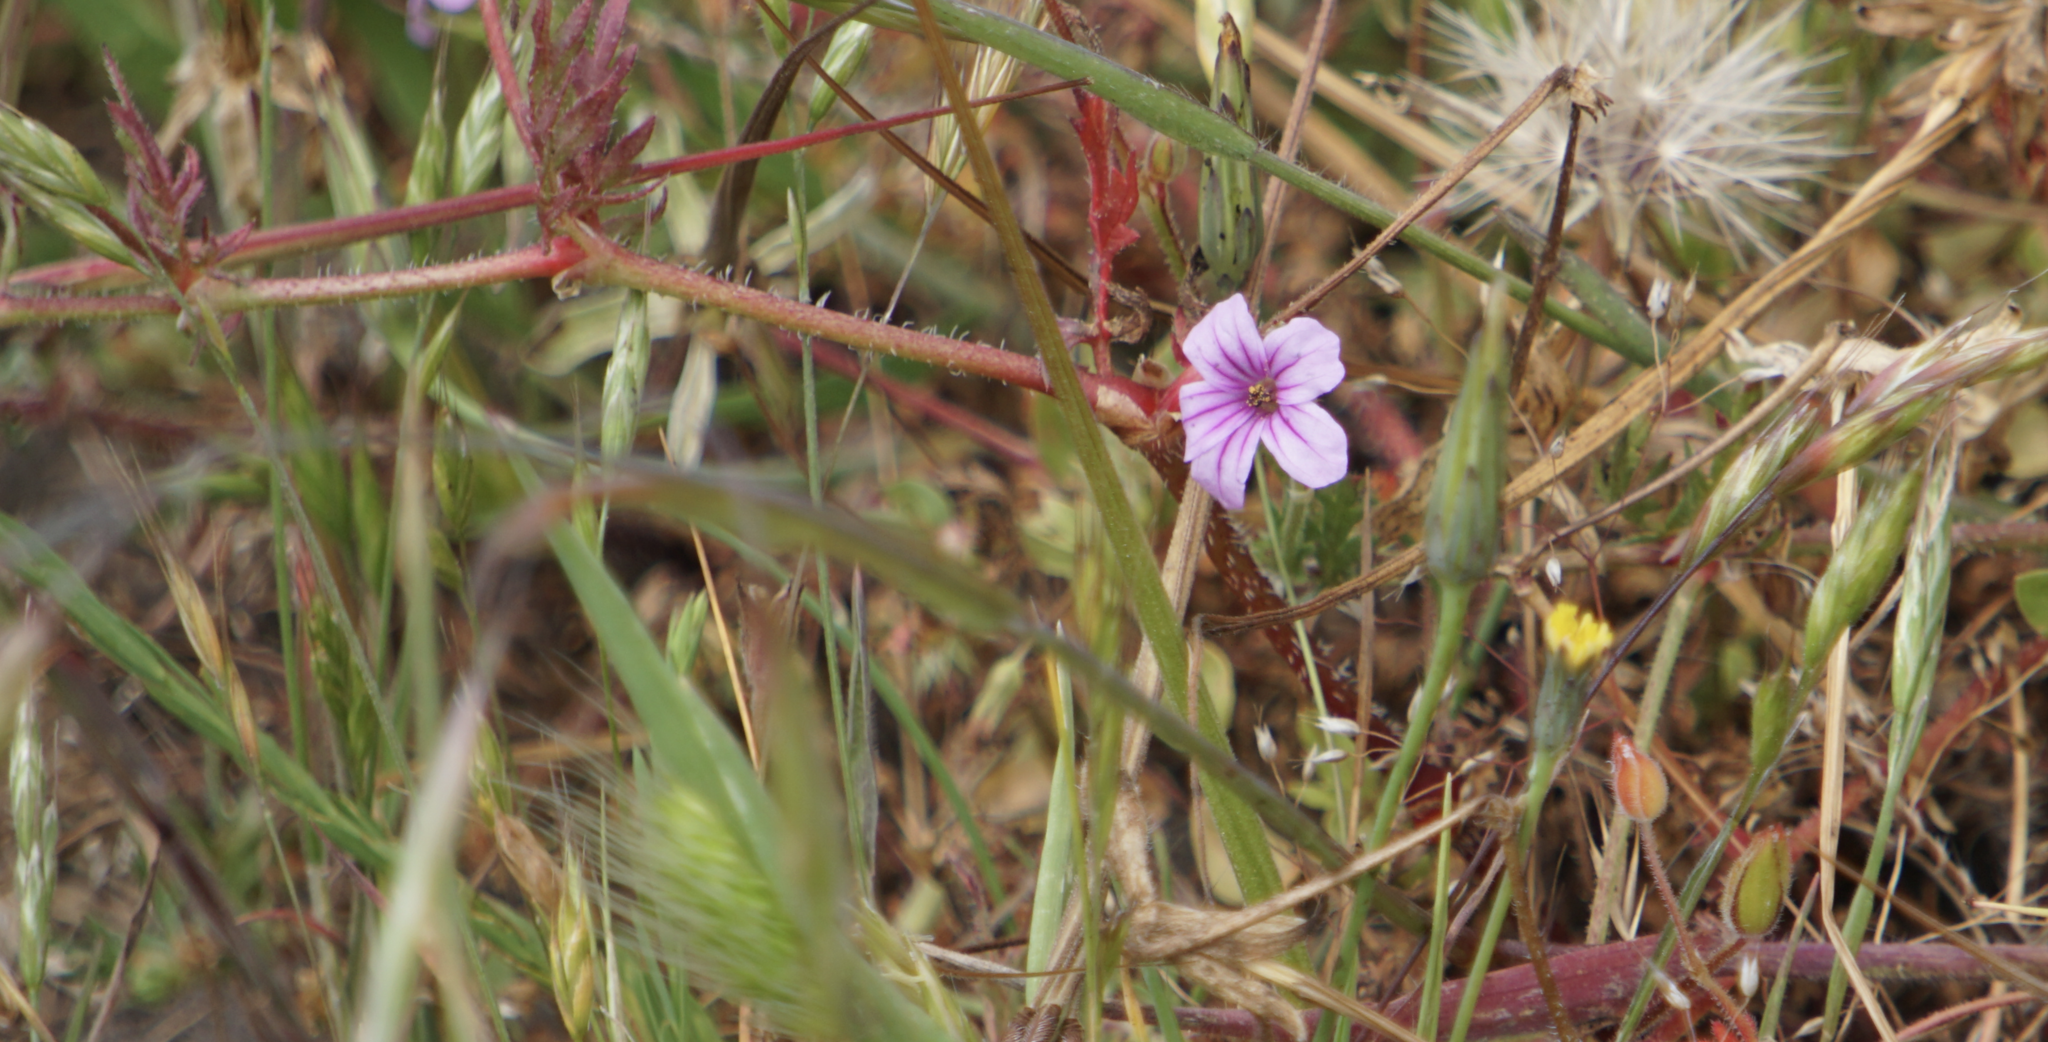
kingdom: Plantae
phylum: Tracheophyta
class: Magnoliopsida
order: Geraniales
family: Geraniaceae
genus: Erodium
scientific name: Erodium botrys
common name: Mediterranean stork's-bill
